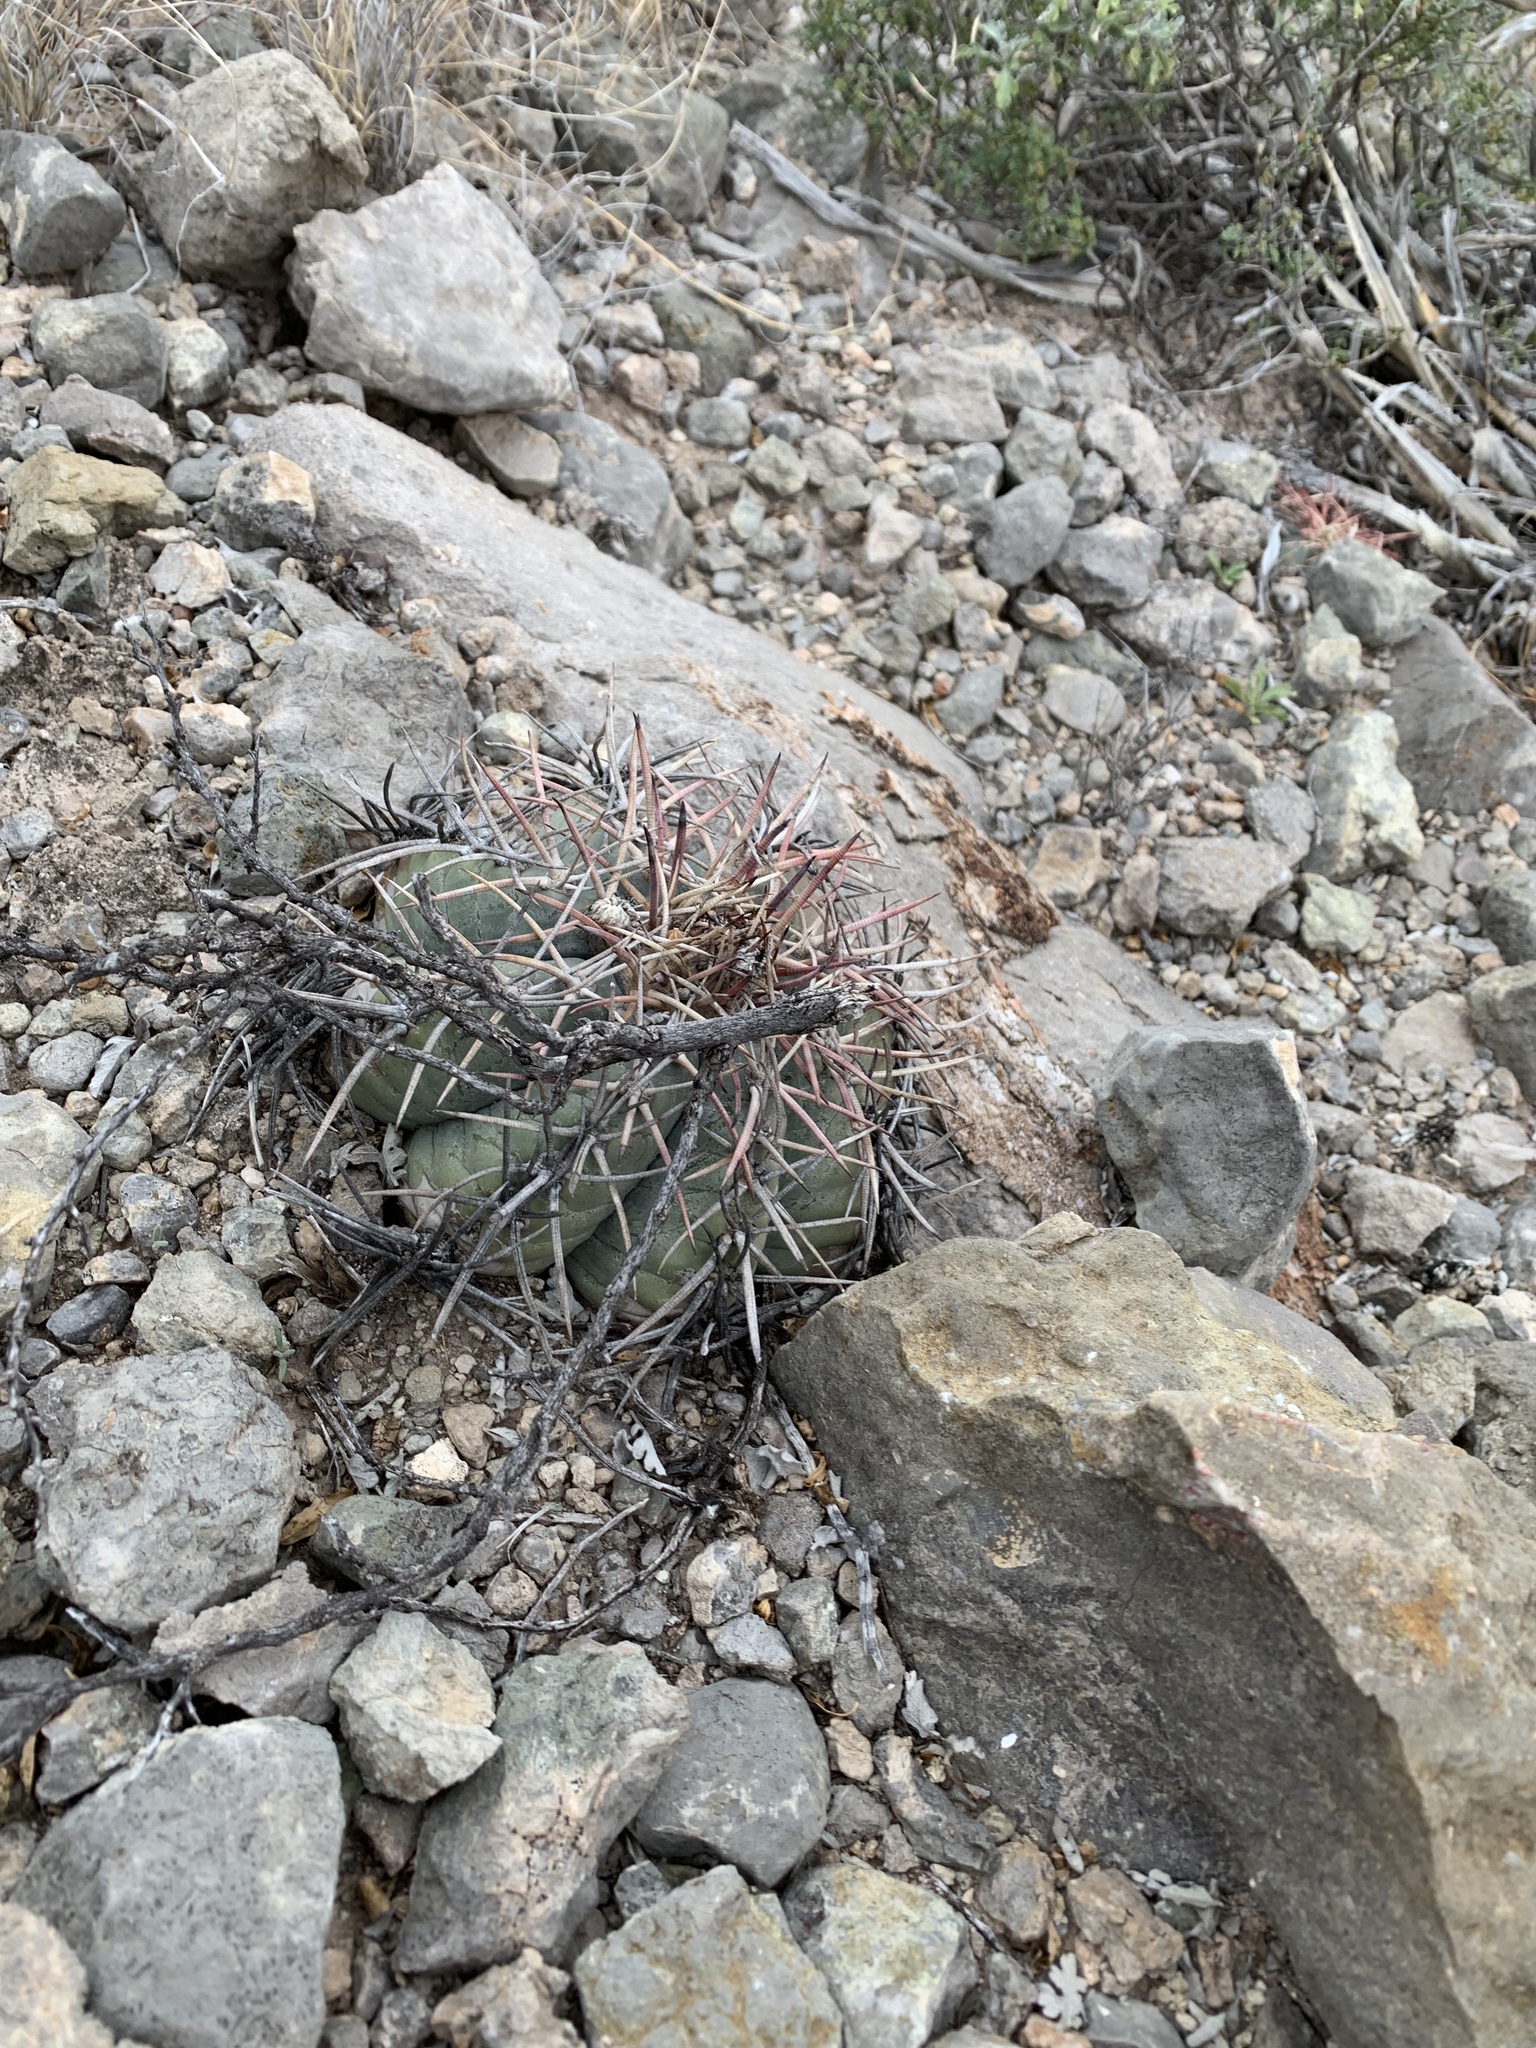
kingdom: Plantae
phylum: Tracheophyta
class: Magnoliopsida
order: Caryophyllales
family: Cactaceae
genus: Echinocactus
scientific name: Echinocactus horizonthalonius
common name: Devilshead
